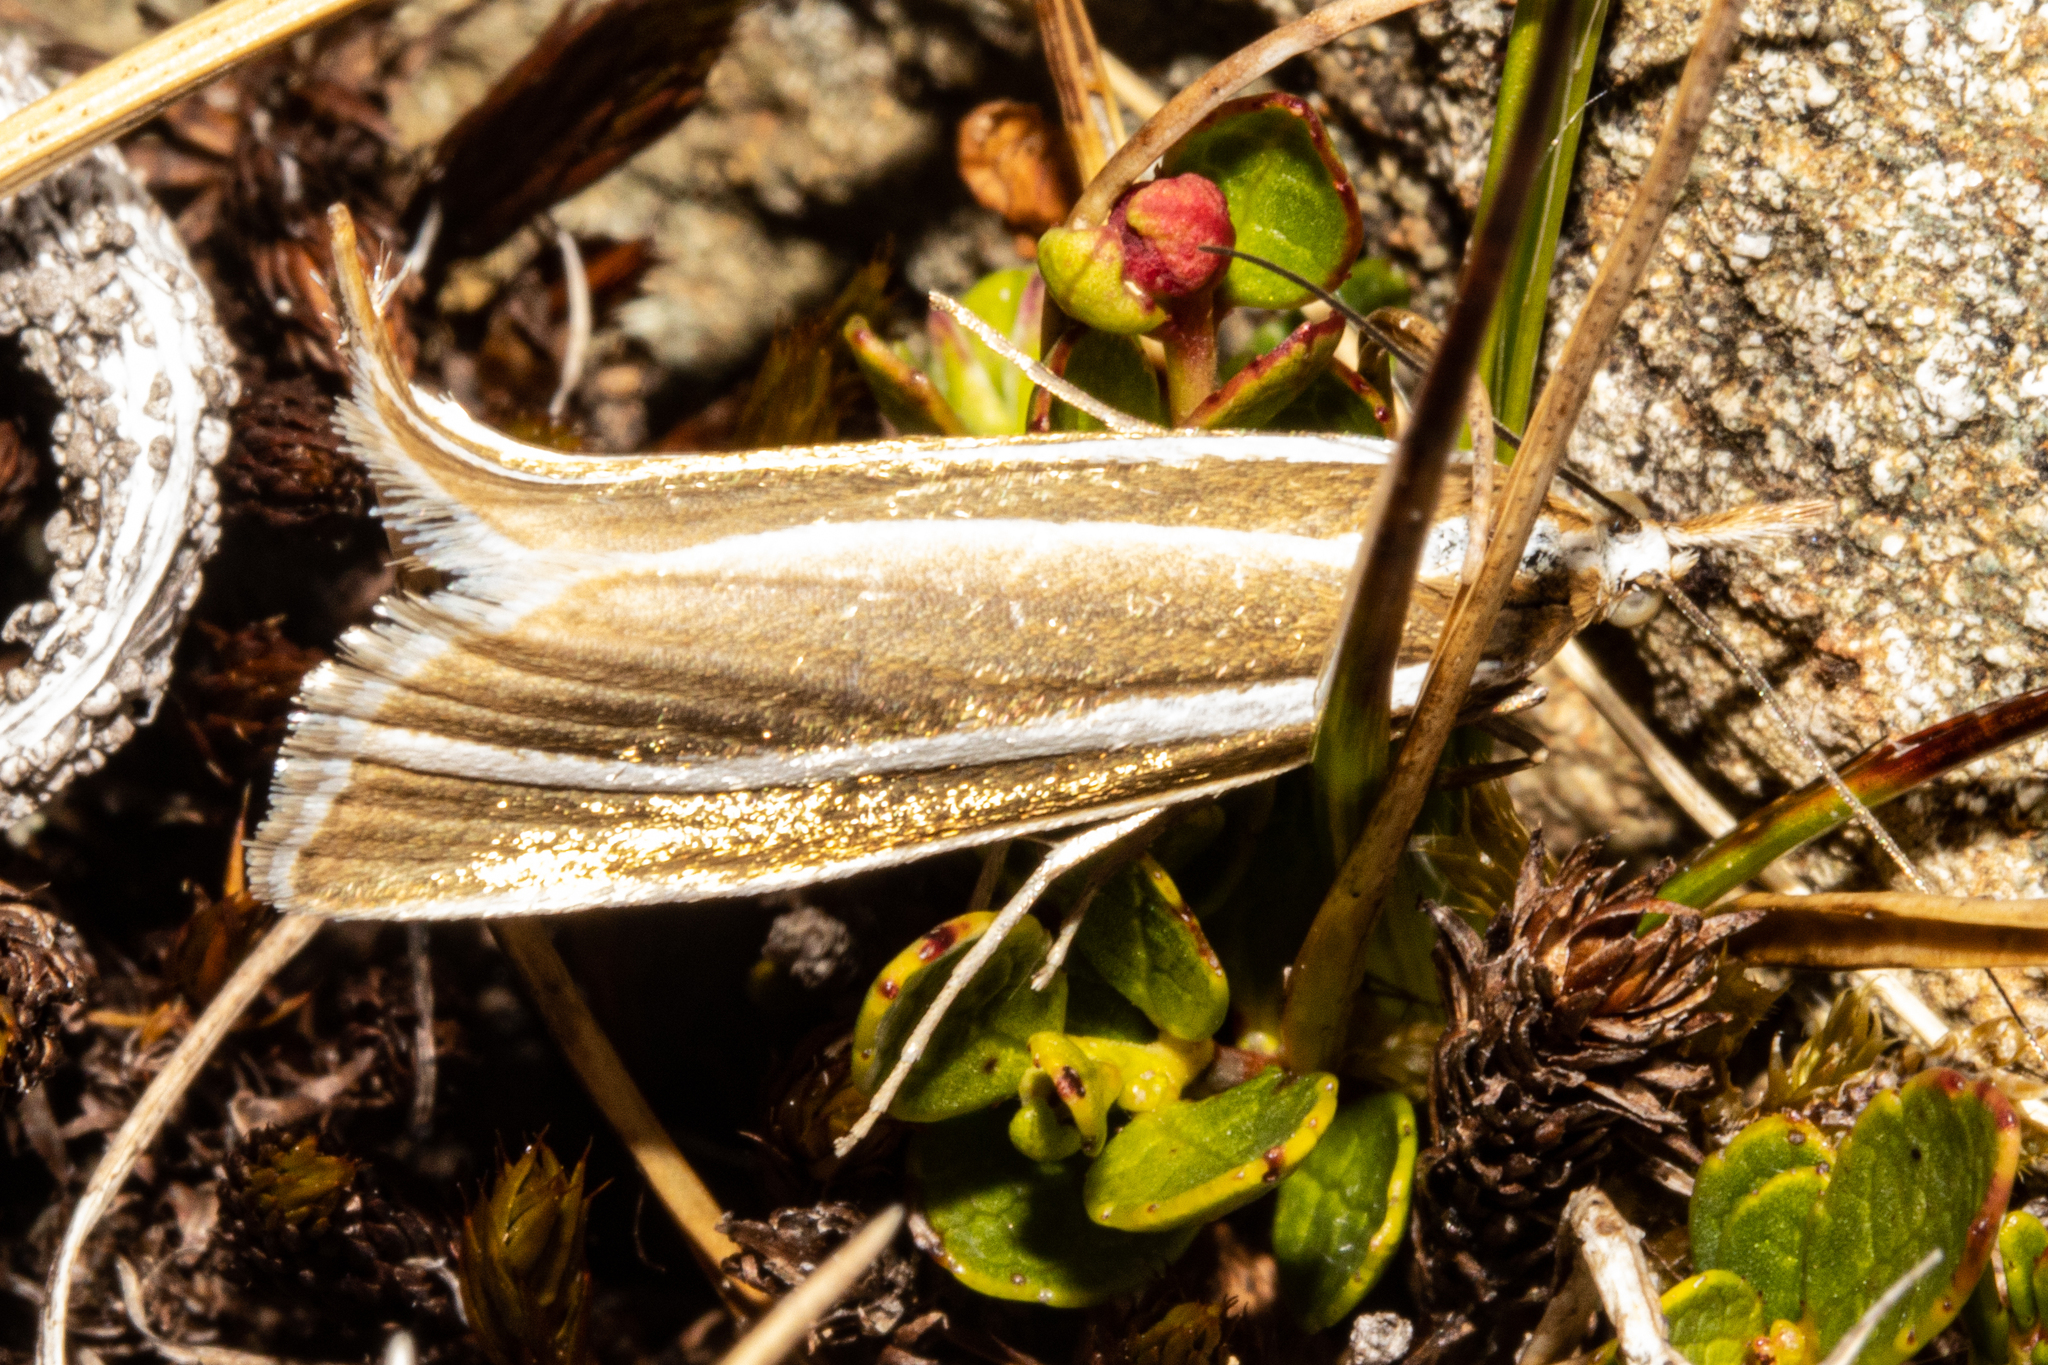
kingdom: Animalia
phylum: Arthropoda
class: Insecta
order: Lepidoptera
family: Crambidae
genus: Orocrambus
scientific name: Orocrambus philpotti
